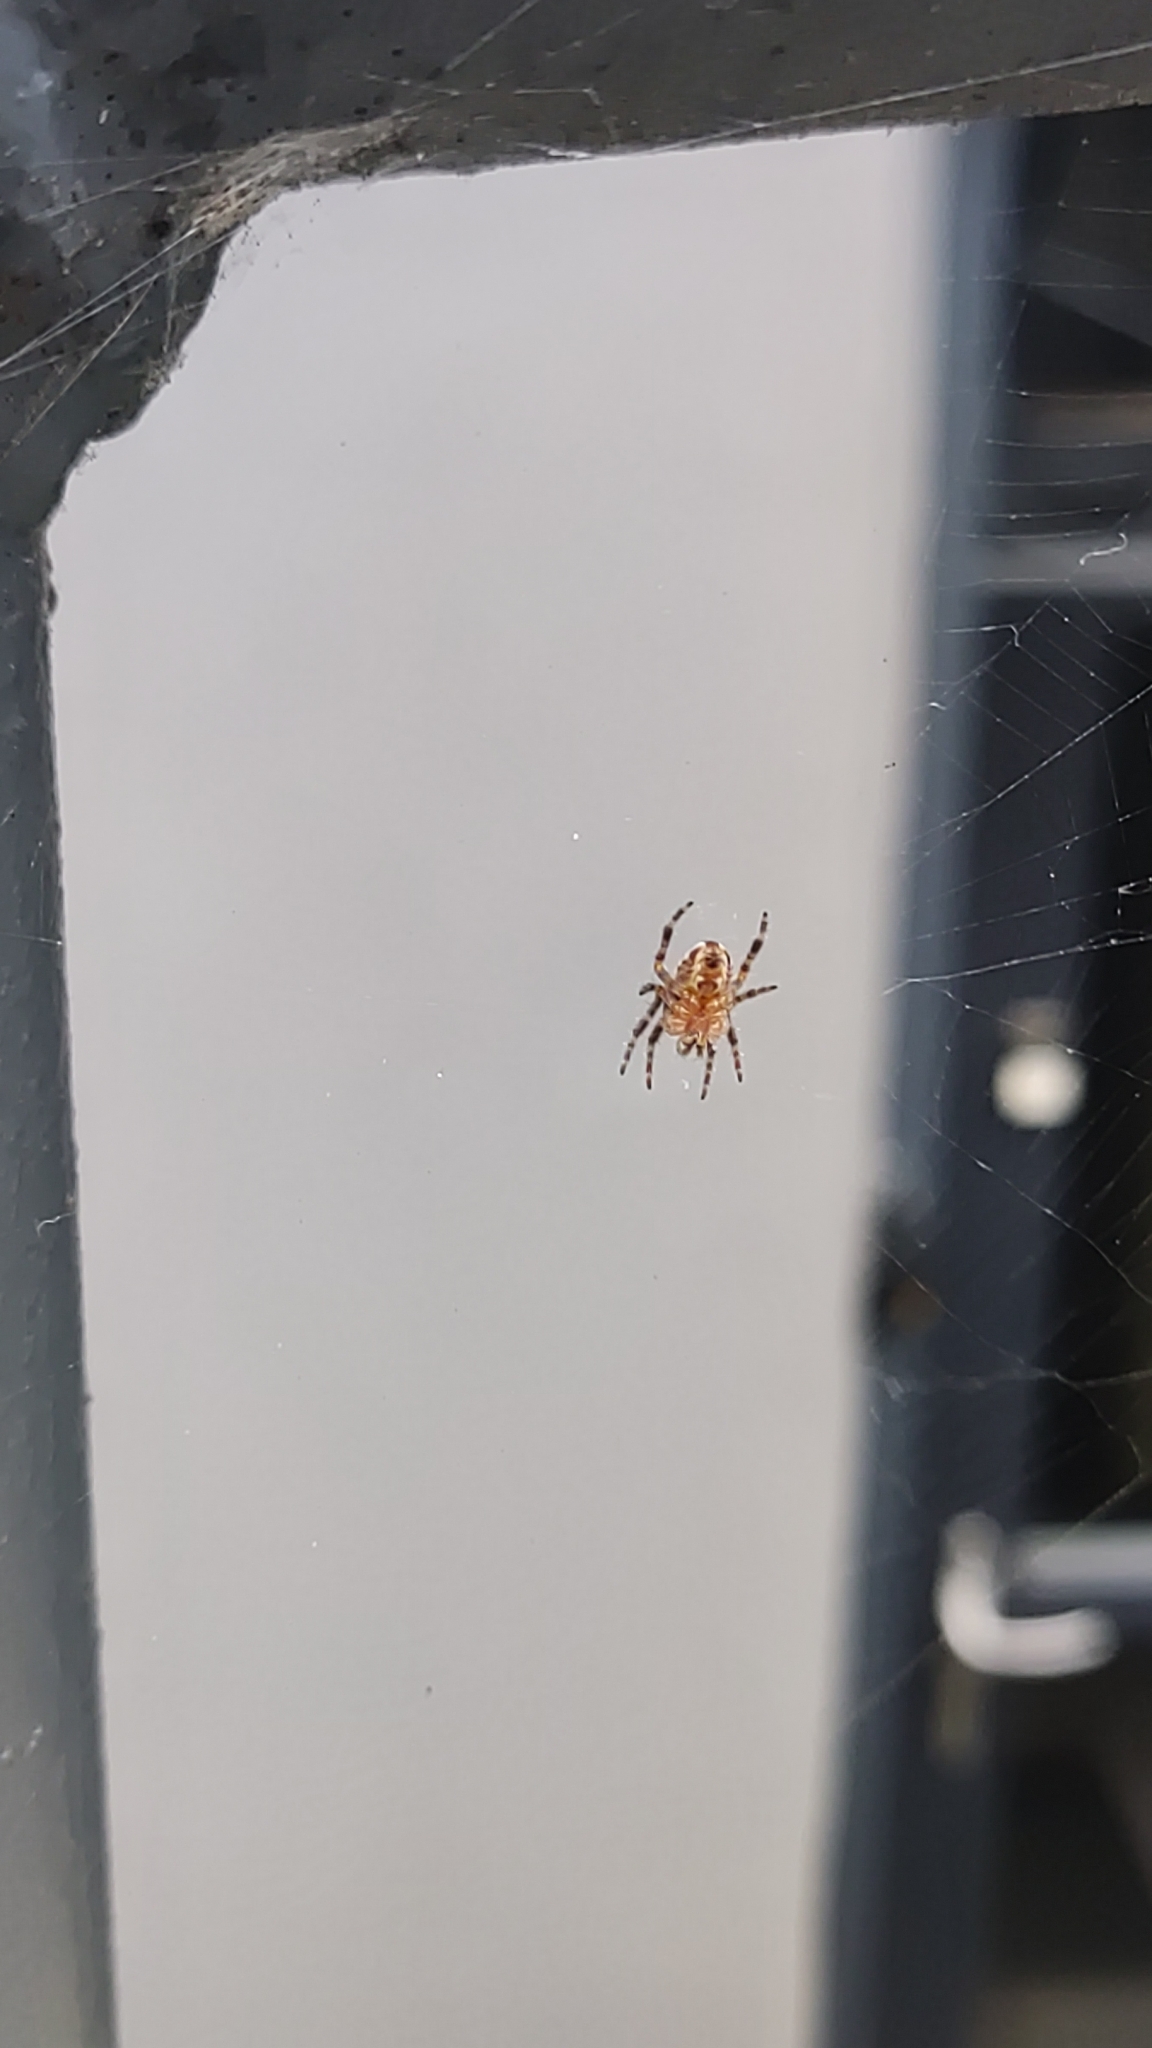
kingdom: Animalia
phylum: Arthropoda
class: Arachnida
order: Araneae
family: Araneidae
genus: Araneus
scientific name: Araneus diadematus
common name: Cross orbweaver
